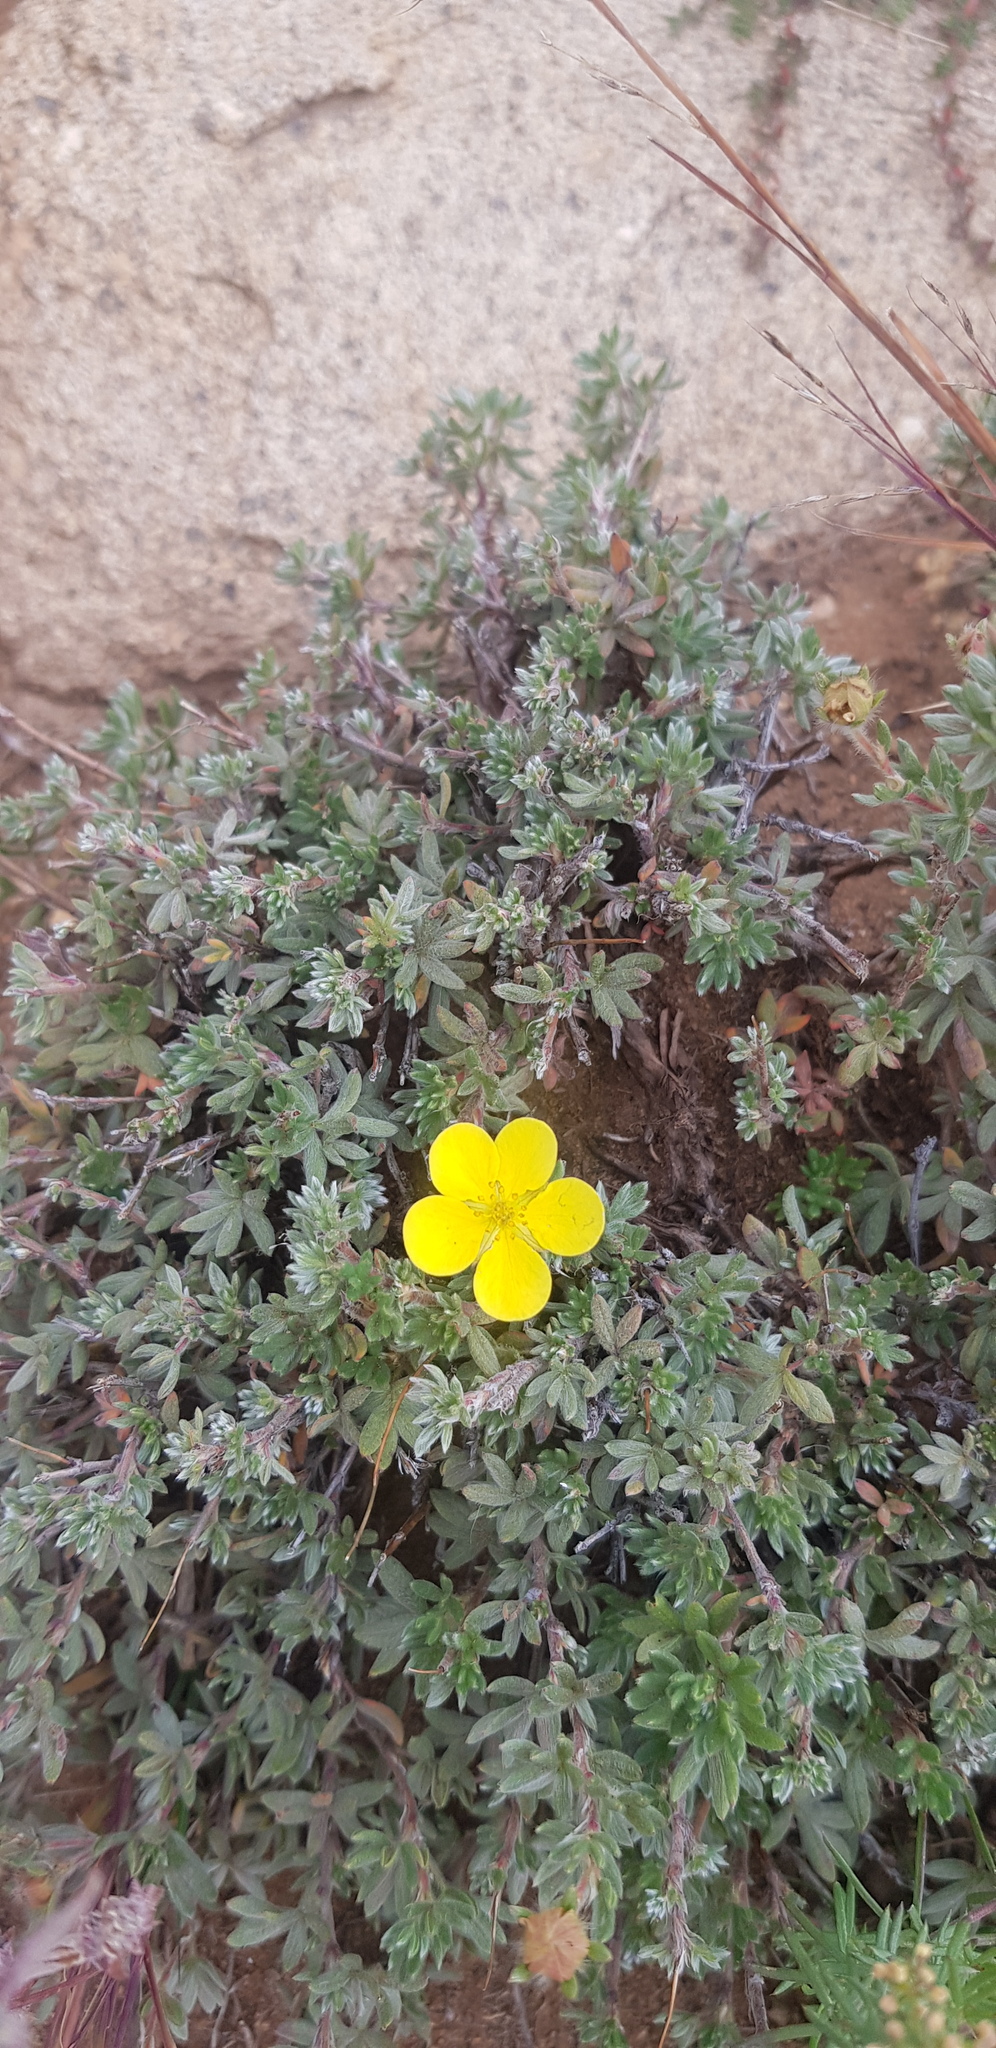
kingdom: Plantae
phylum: Tracheophyta
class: Magnoliopsida
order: Rosales
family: Rosaceae
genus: Dasiphora
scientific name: Dasiphora fruticosa
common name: Shrubby cinquefoil
